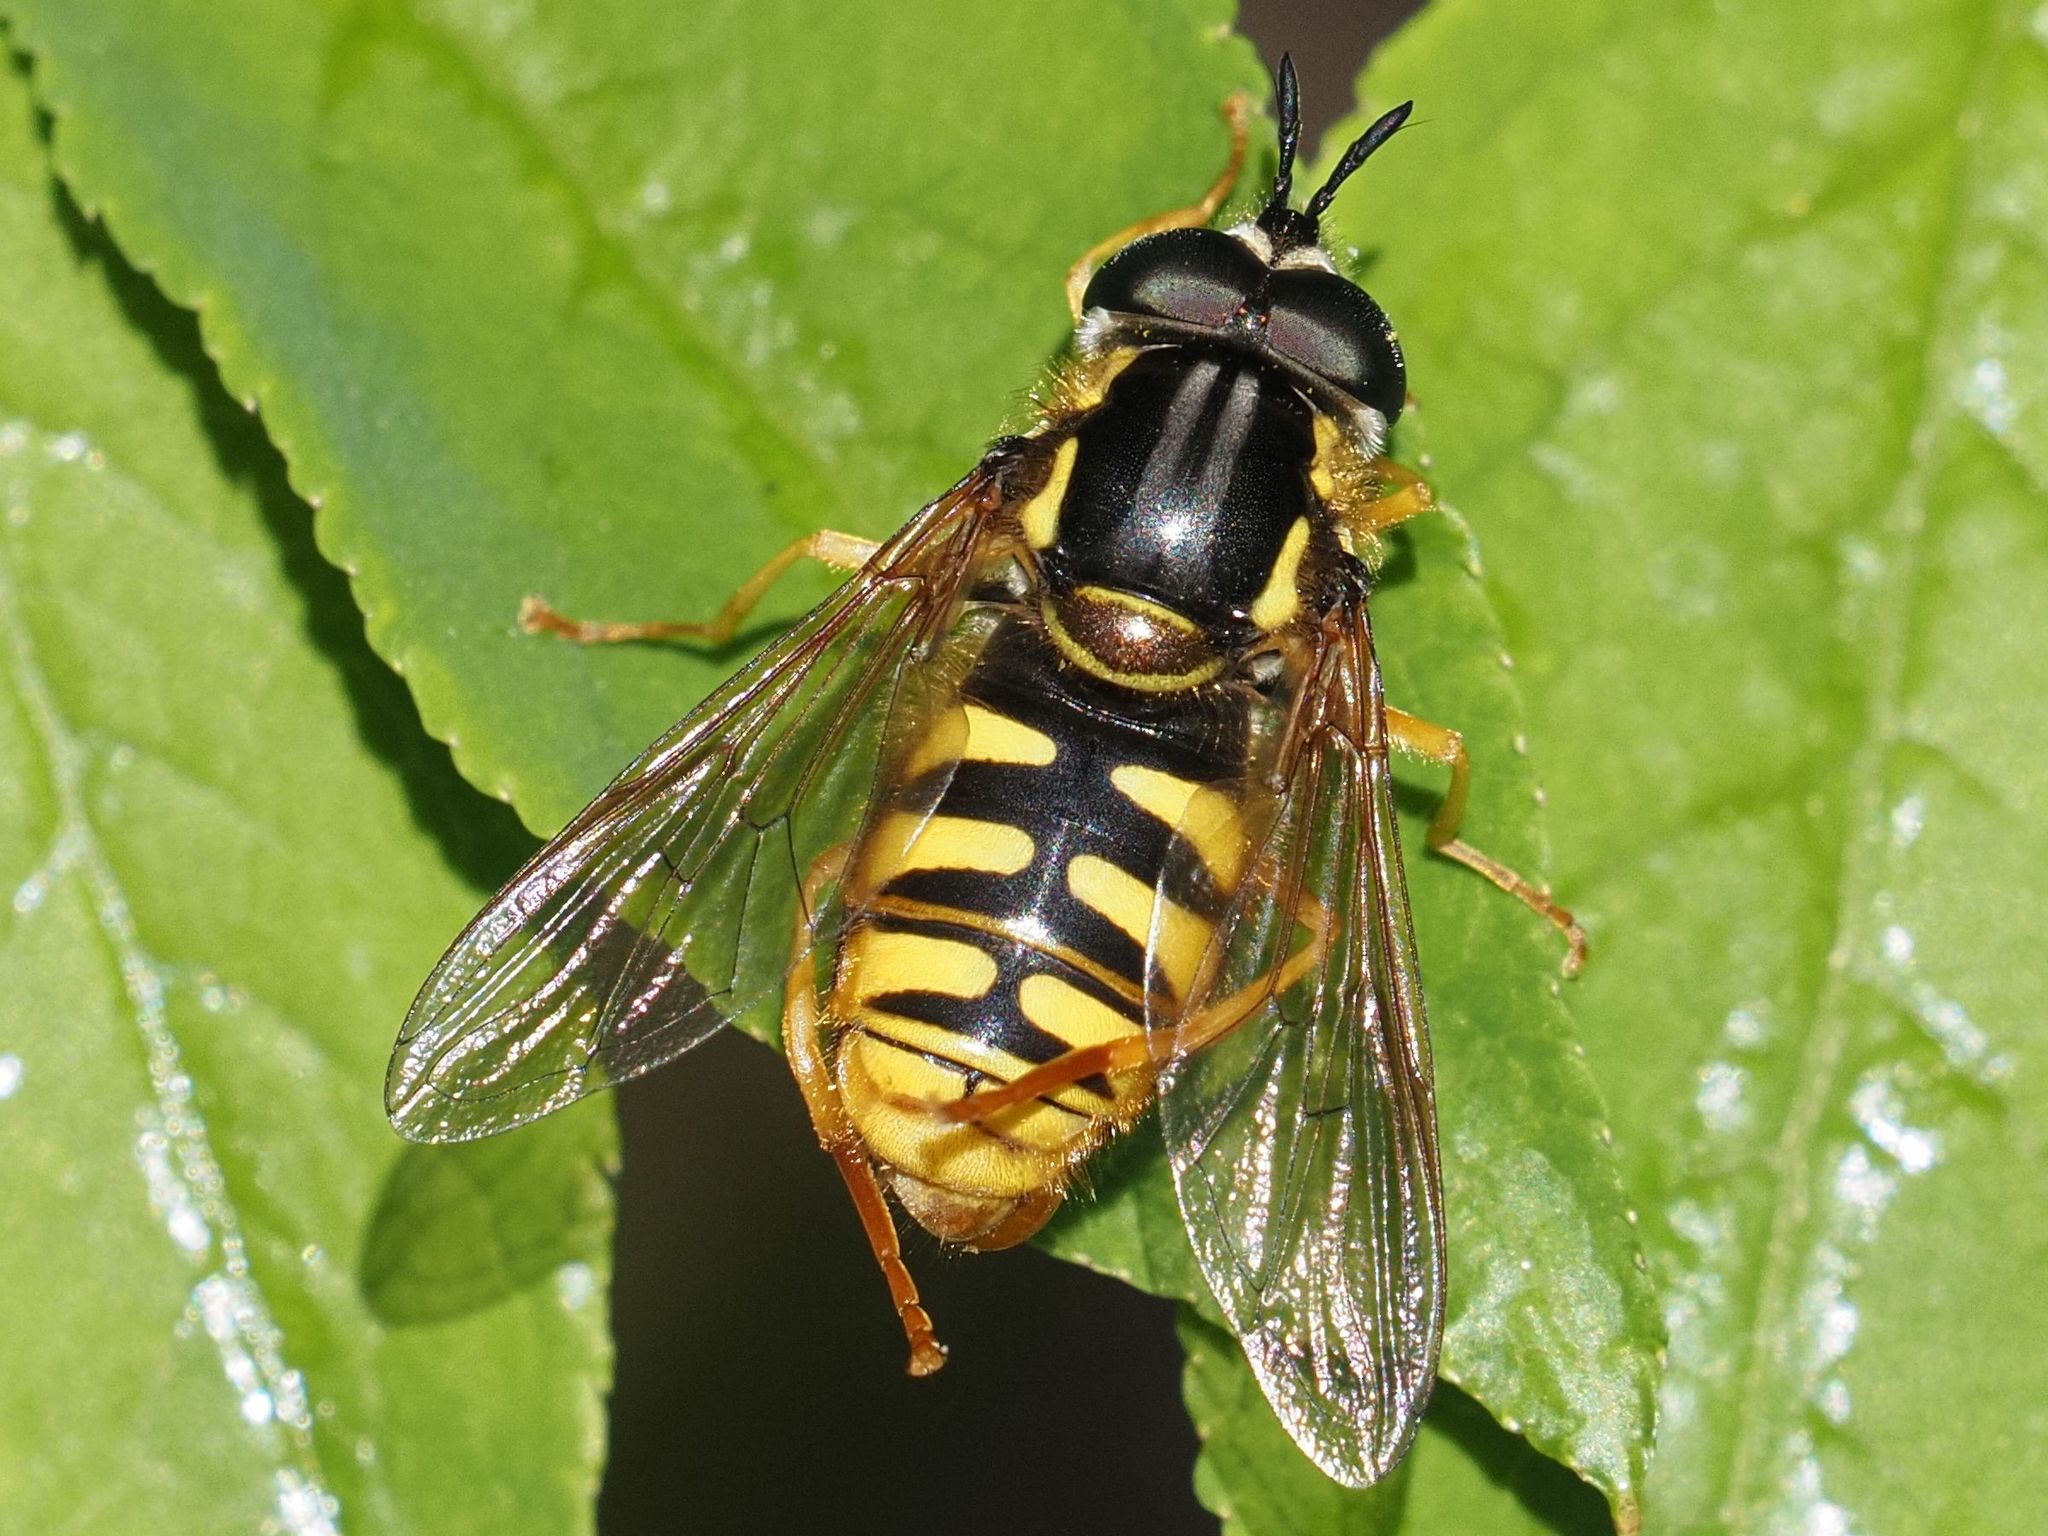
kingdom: Animalia
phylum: Arthropoda
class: Insecta
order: Diptera
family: Syrphidae
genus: Chrysotoxum
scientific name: Chrysotoxum cautum
